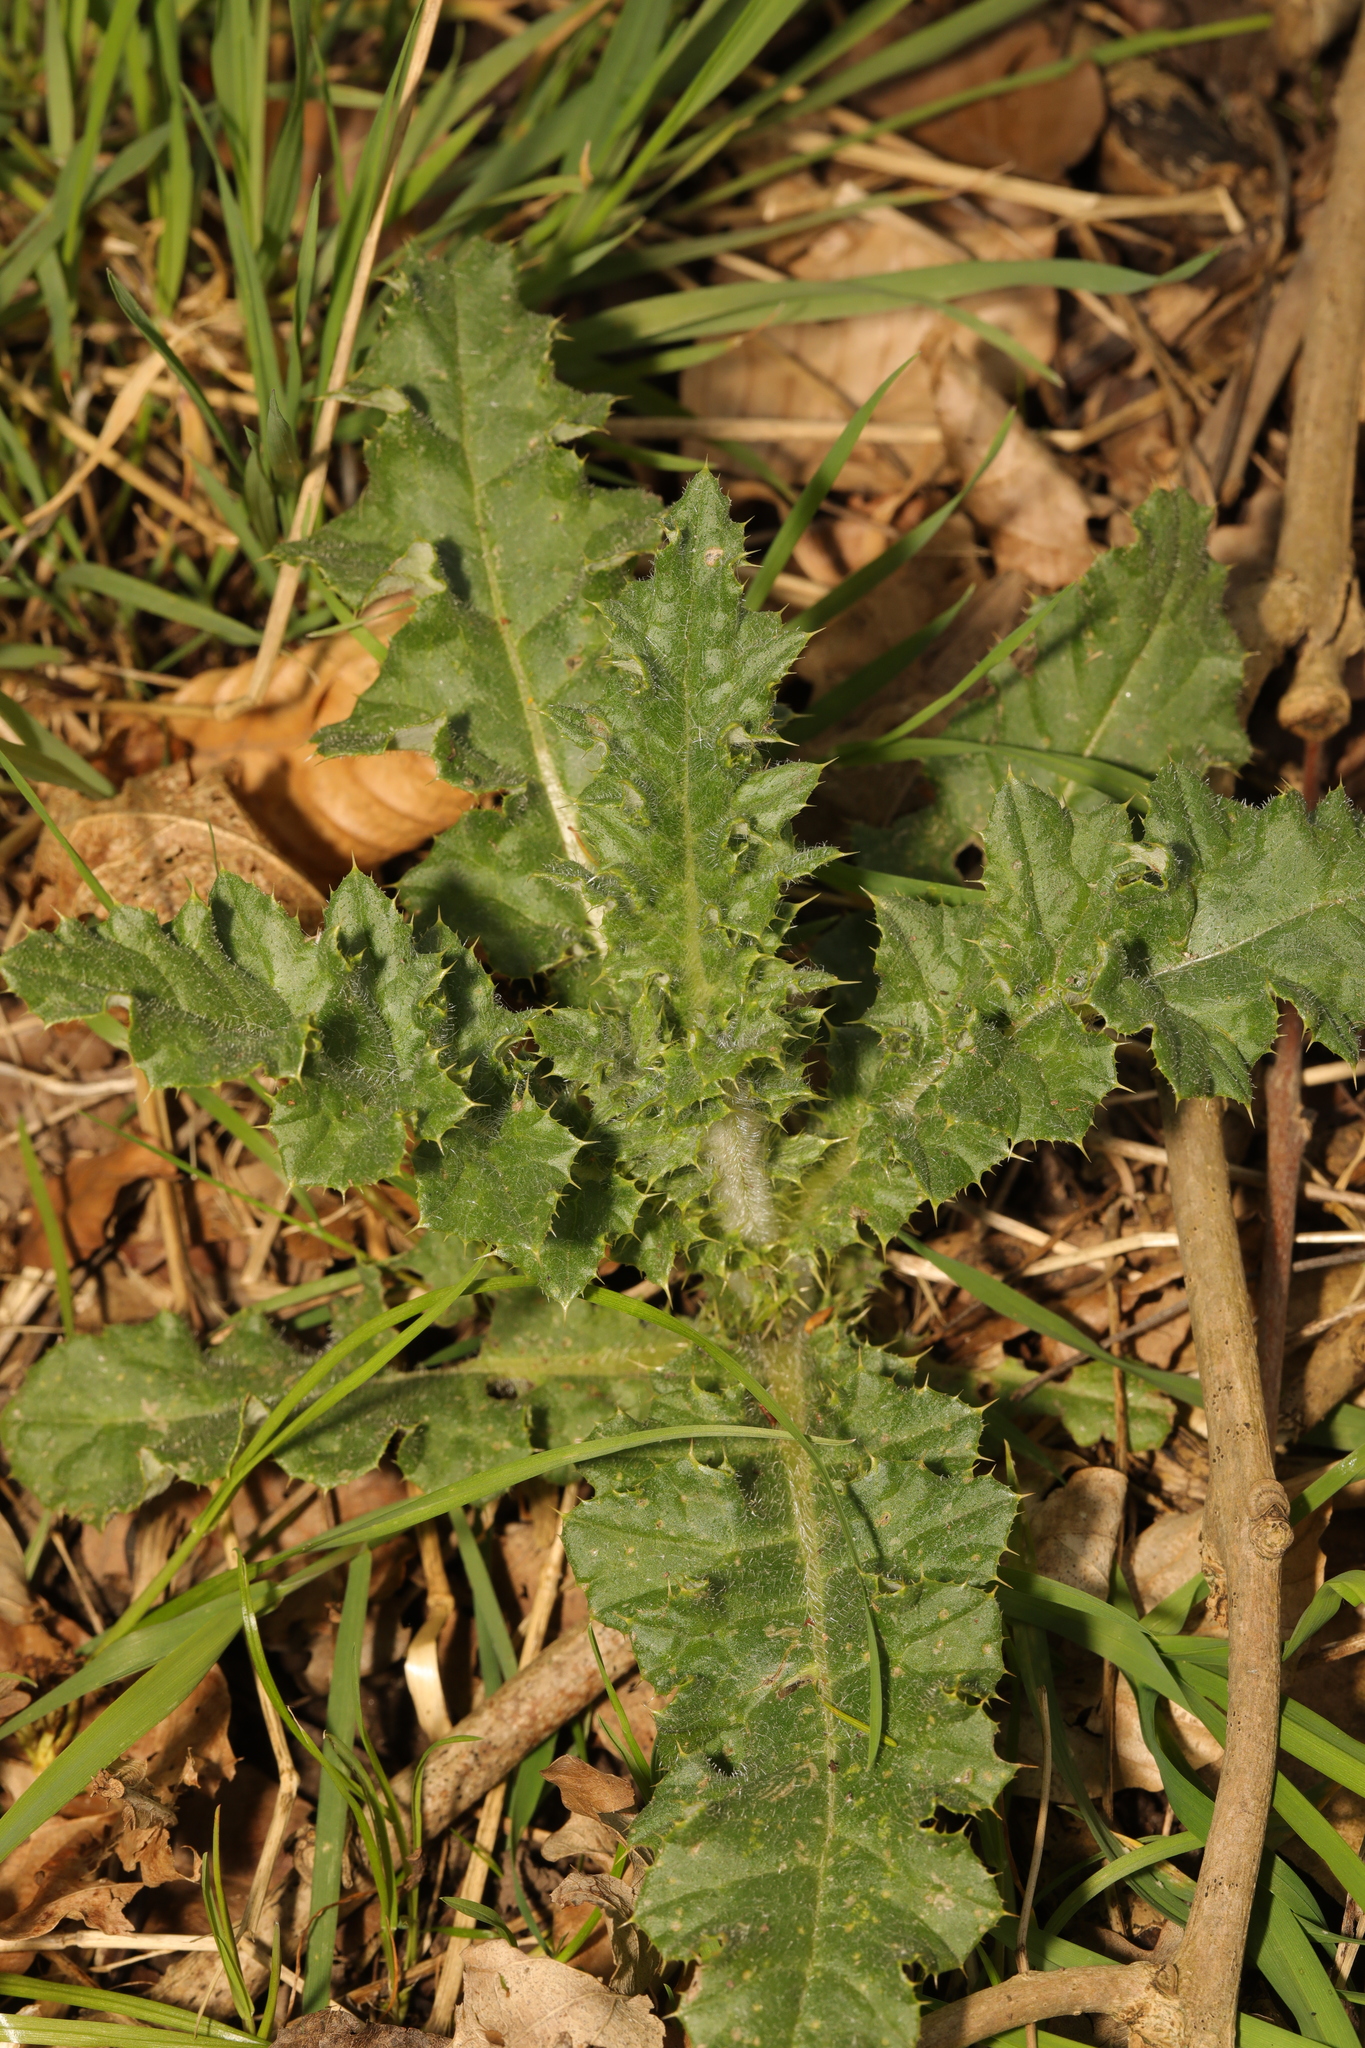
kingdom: Plantae
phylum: Tracheophyta
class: Magnoliopsida
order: Asterales
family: Asteraceae
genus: Cirsium
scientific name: Cirsium arvense
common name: Creeping thistle
